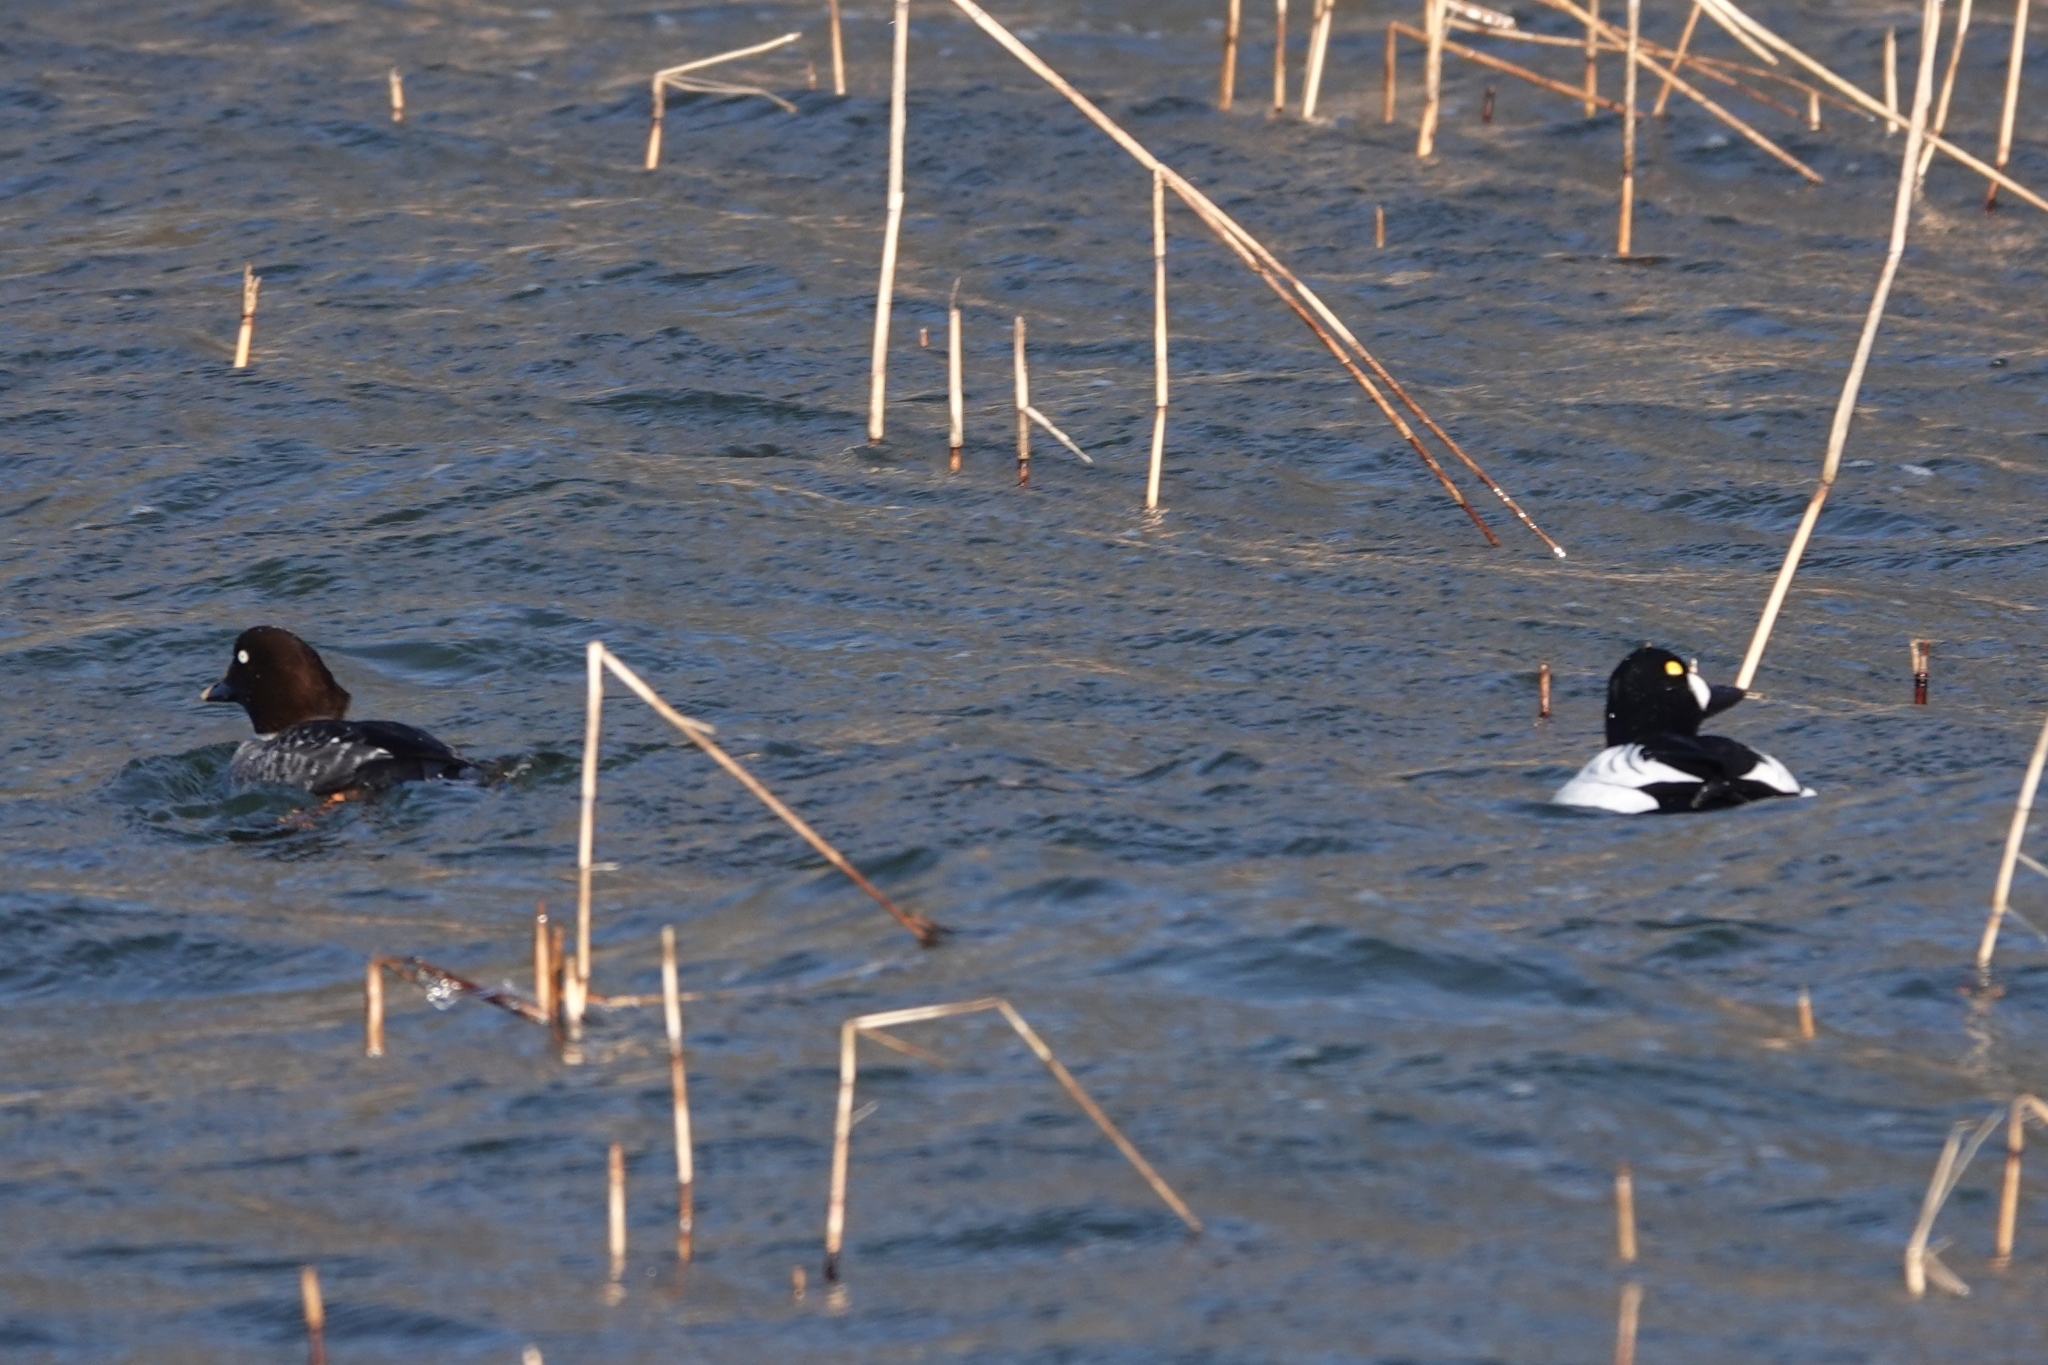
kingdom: Animalia
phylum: Chordata
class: Aves
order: Anseriformes
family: Anatidae
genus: Bucephala
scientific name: Bucephala clangula
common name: Common goldeneye
